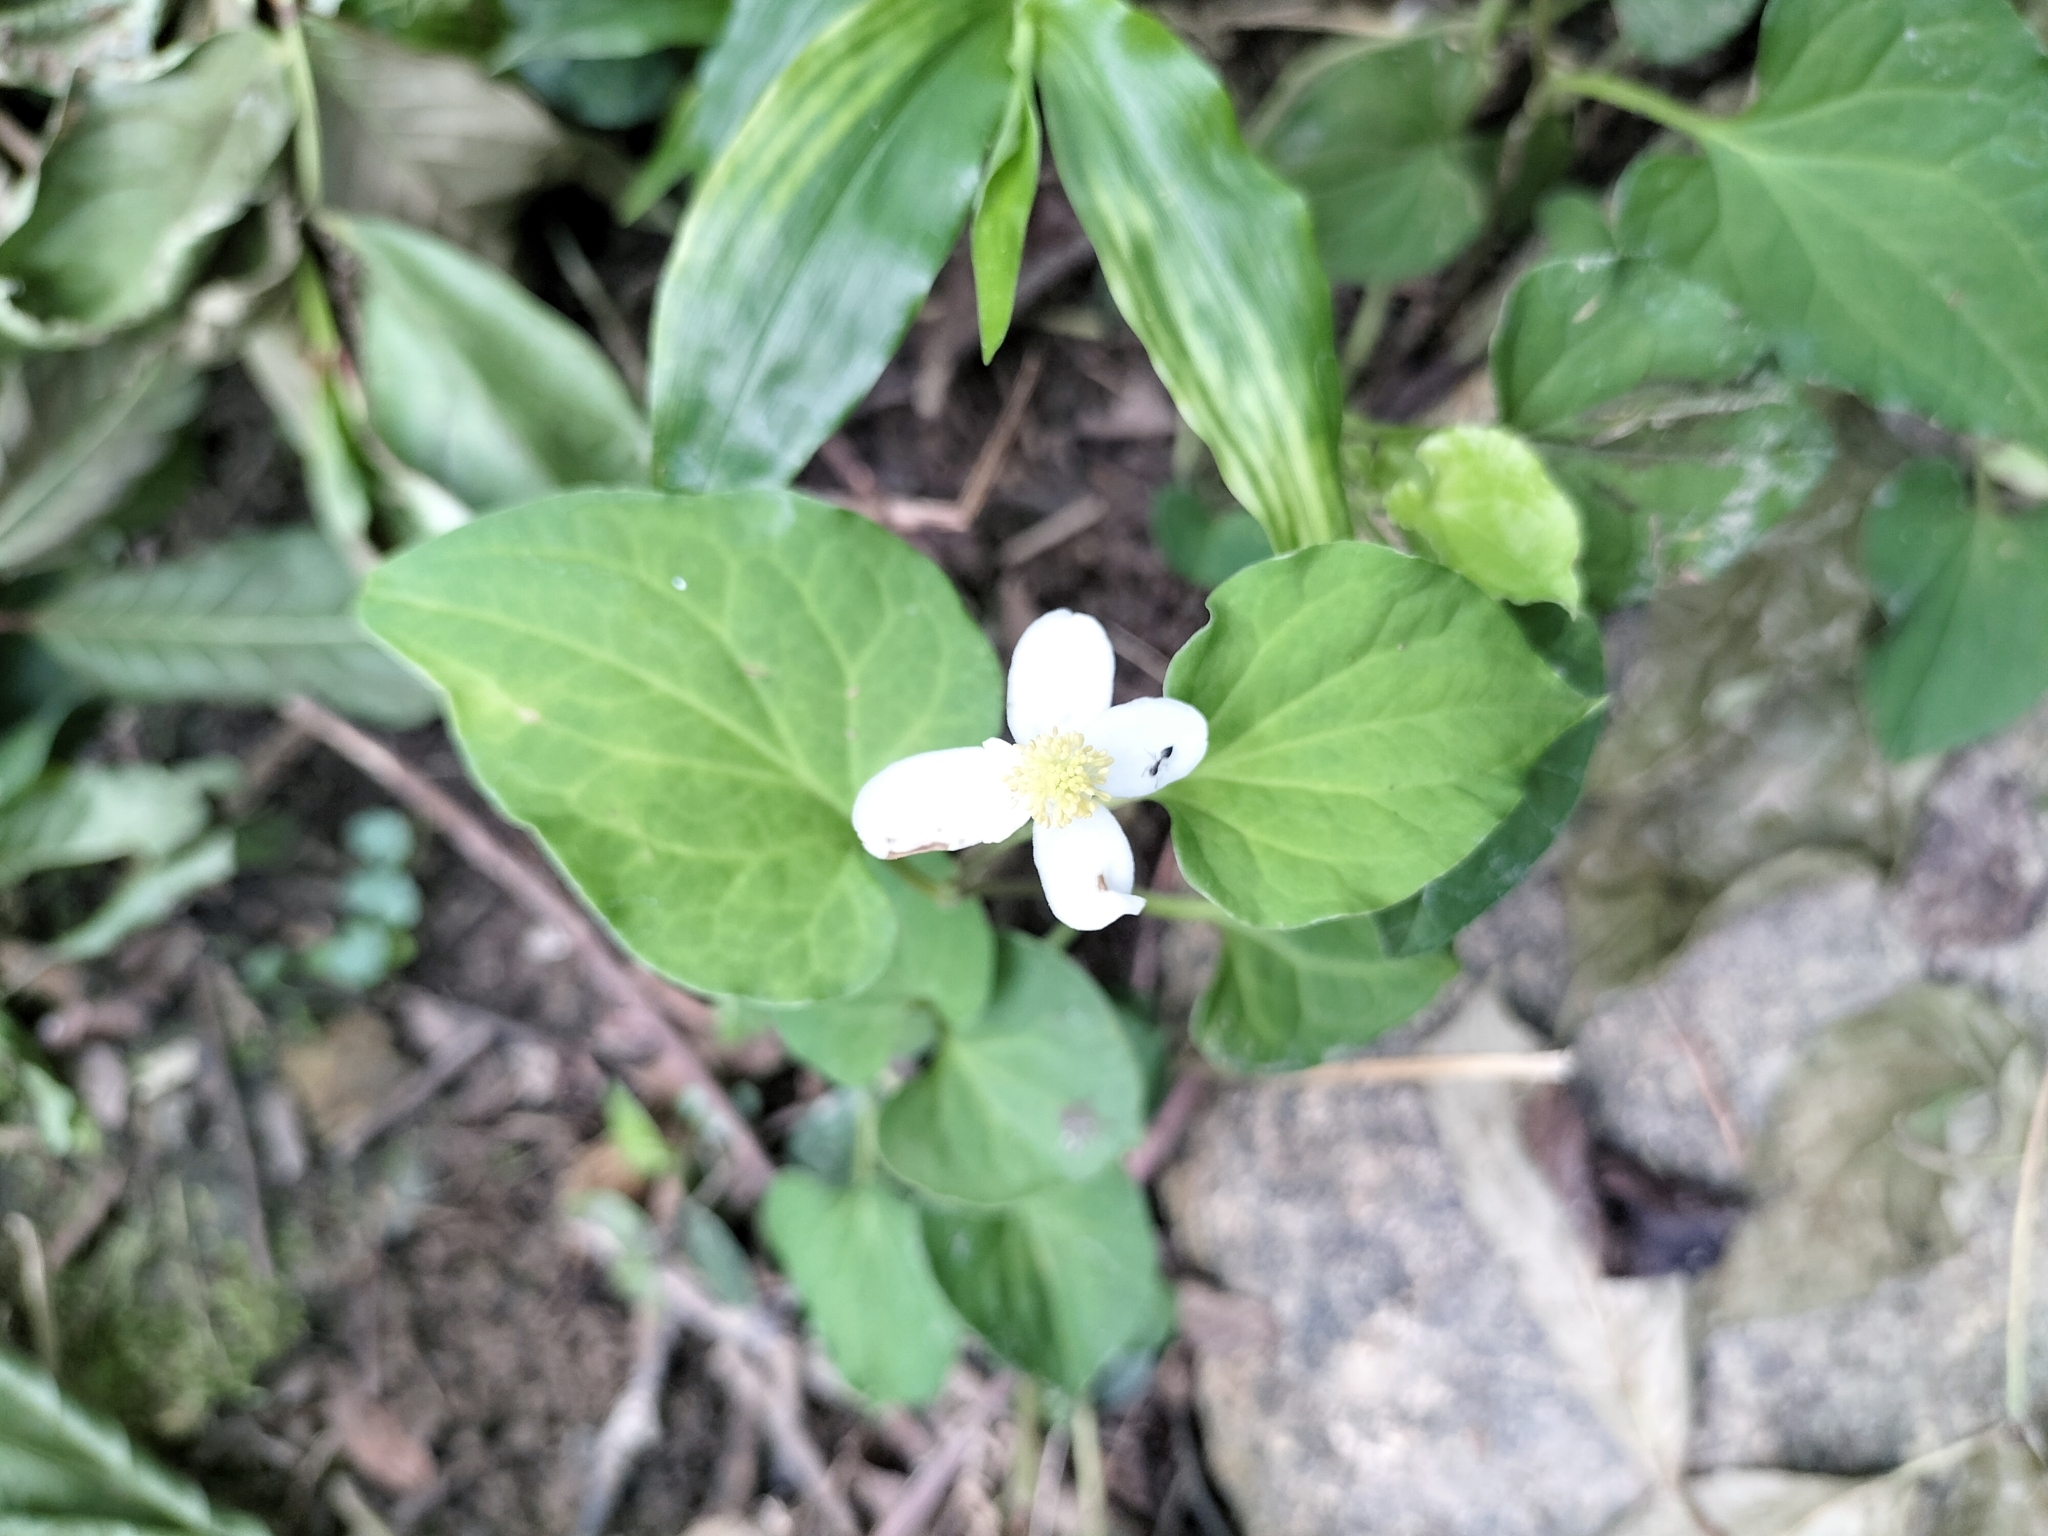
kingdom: Plantae
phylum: Tracheophyta
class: Magnoliopsida
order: Piperales
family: Saururaceae
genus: Houttuynia
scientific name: Houttuynia cordata
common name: Chameleon
